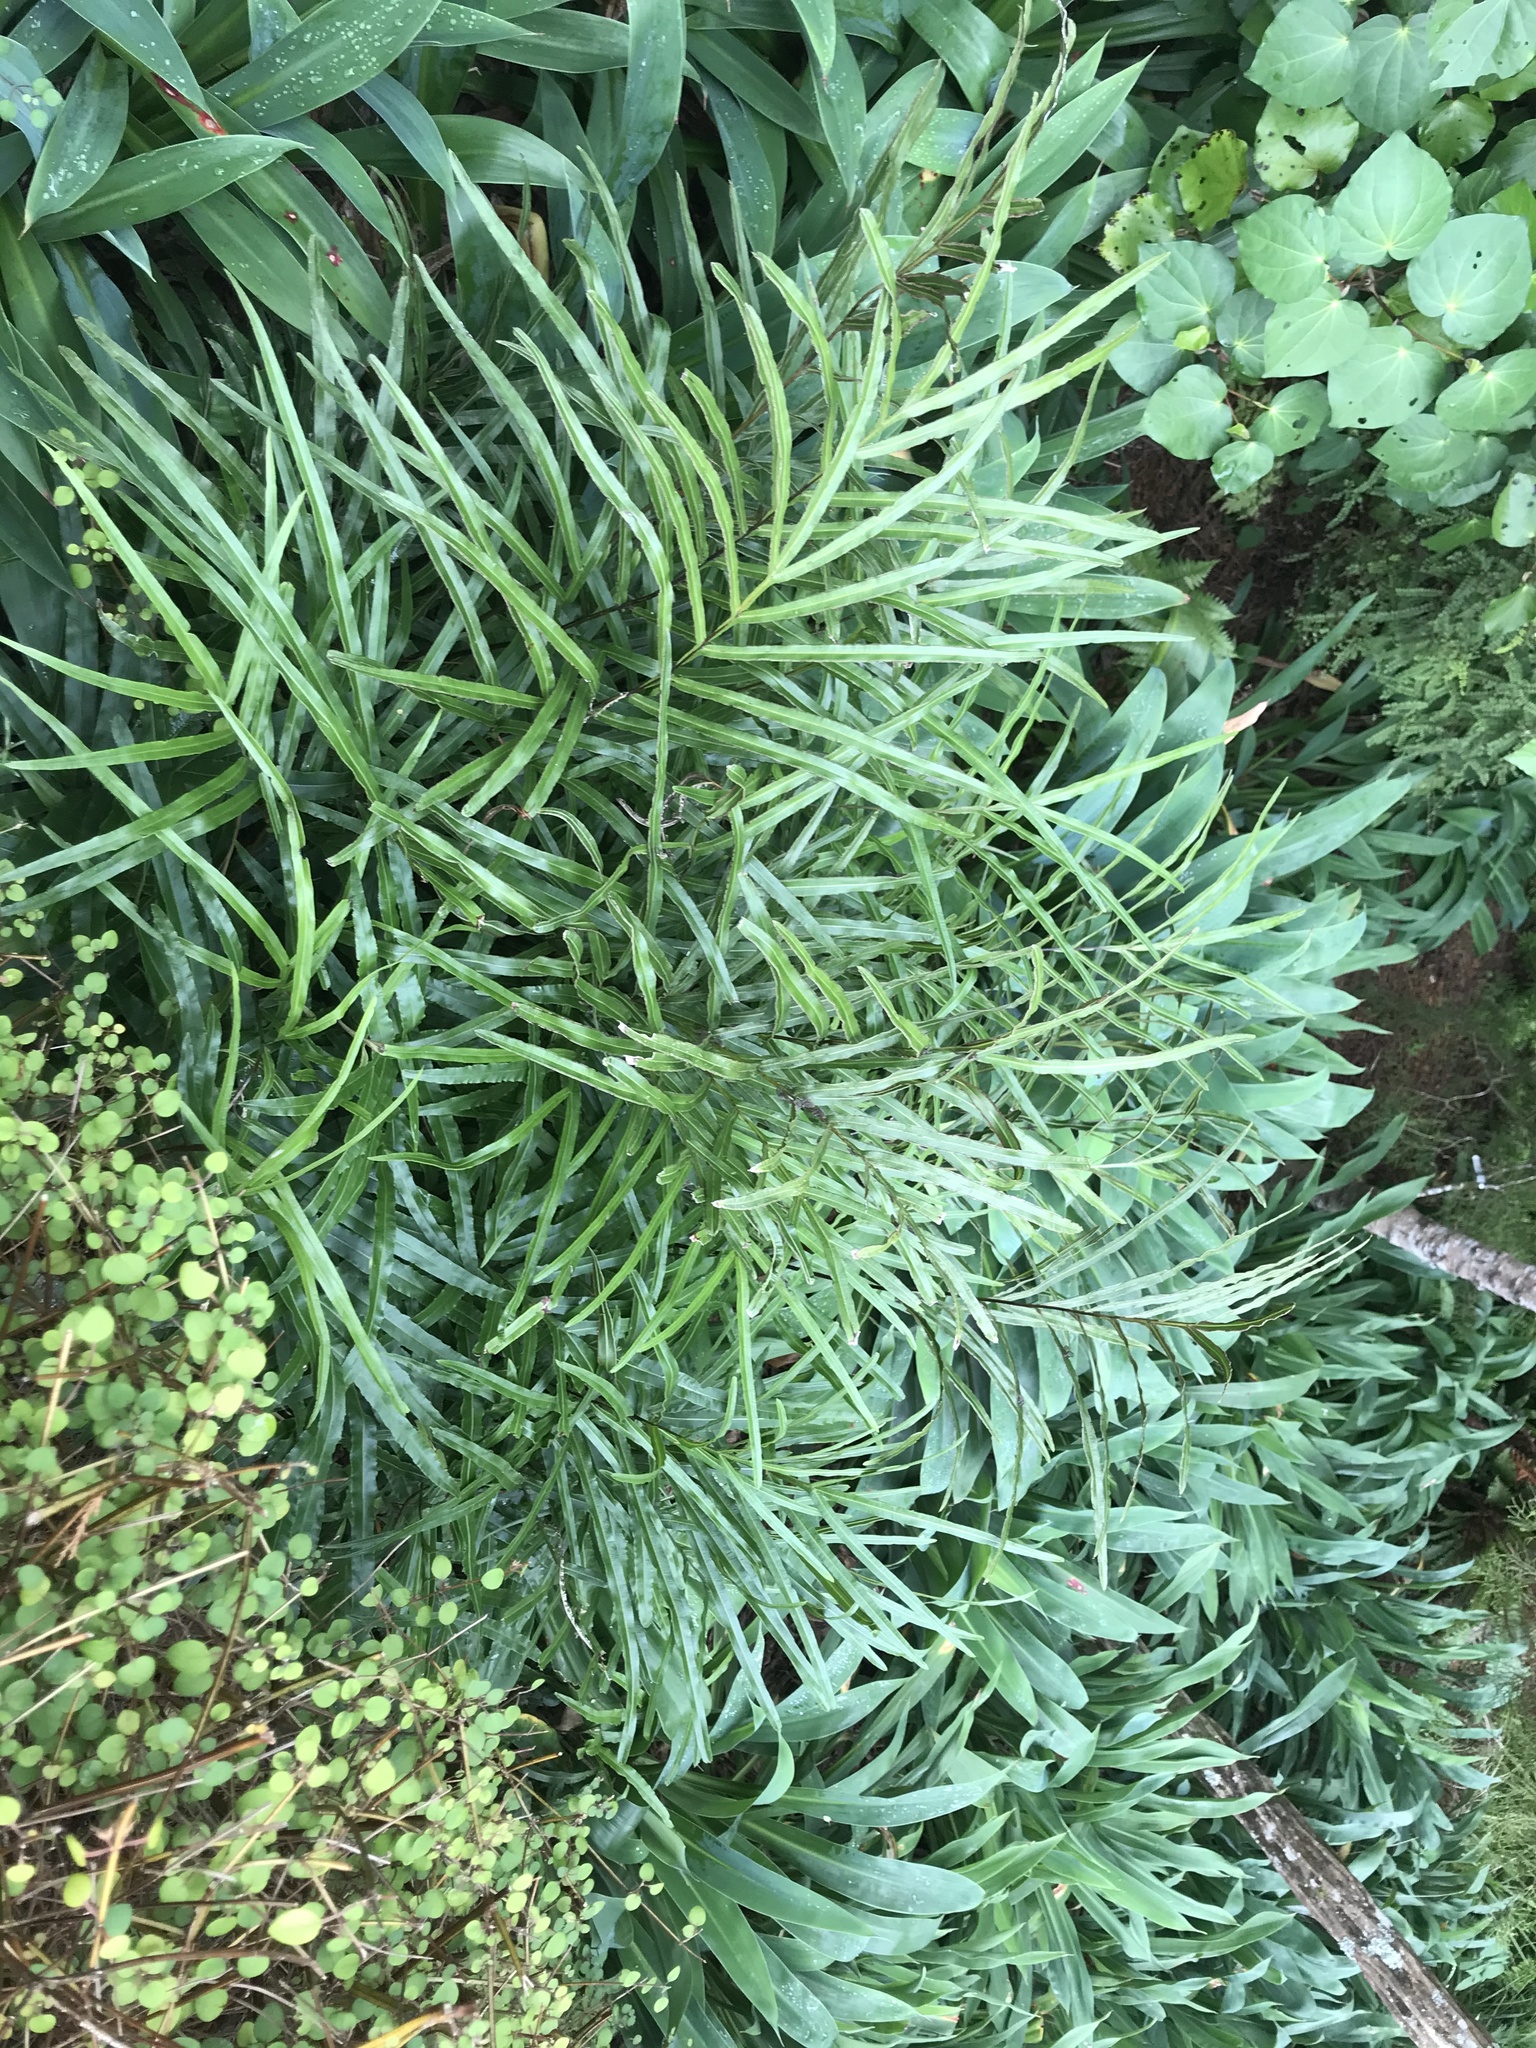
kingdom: Plantae
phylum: Tracheophyta
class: Polypodiopsida
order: Polypodiales
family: Pteridaceae
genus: Pteris
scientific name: Pteris cretica
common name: Ribbon fern
